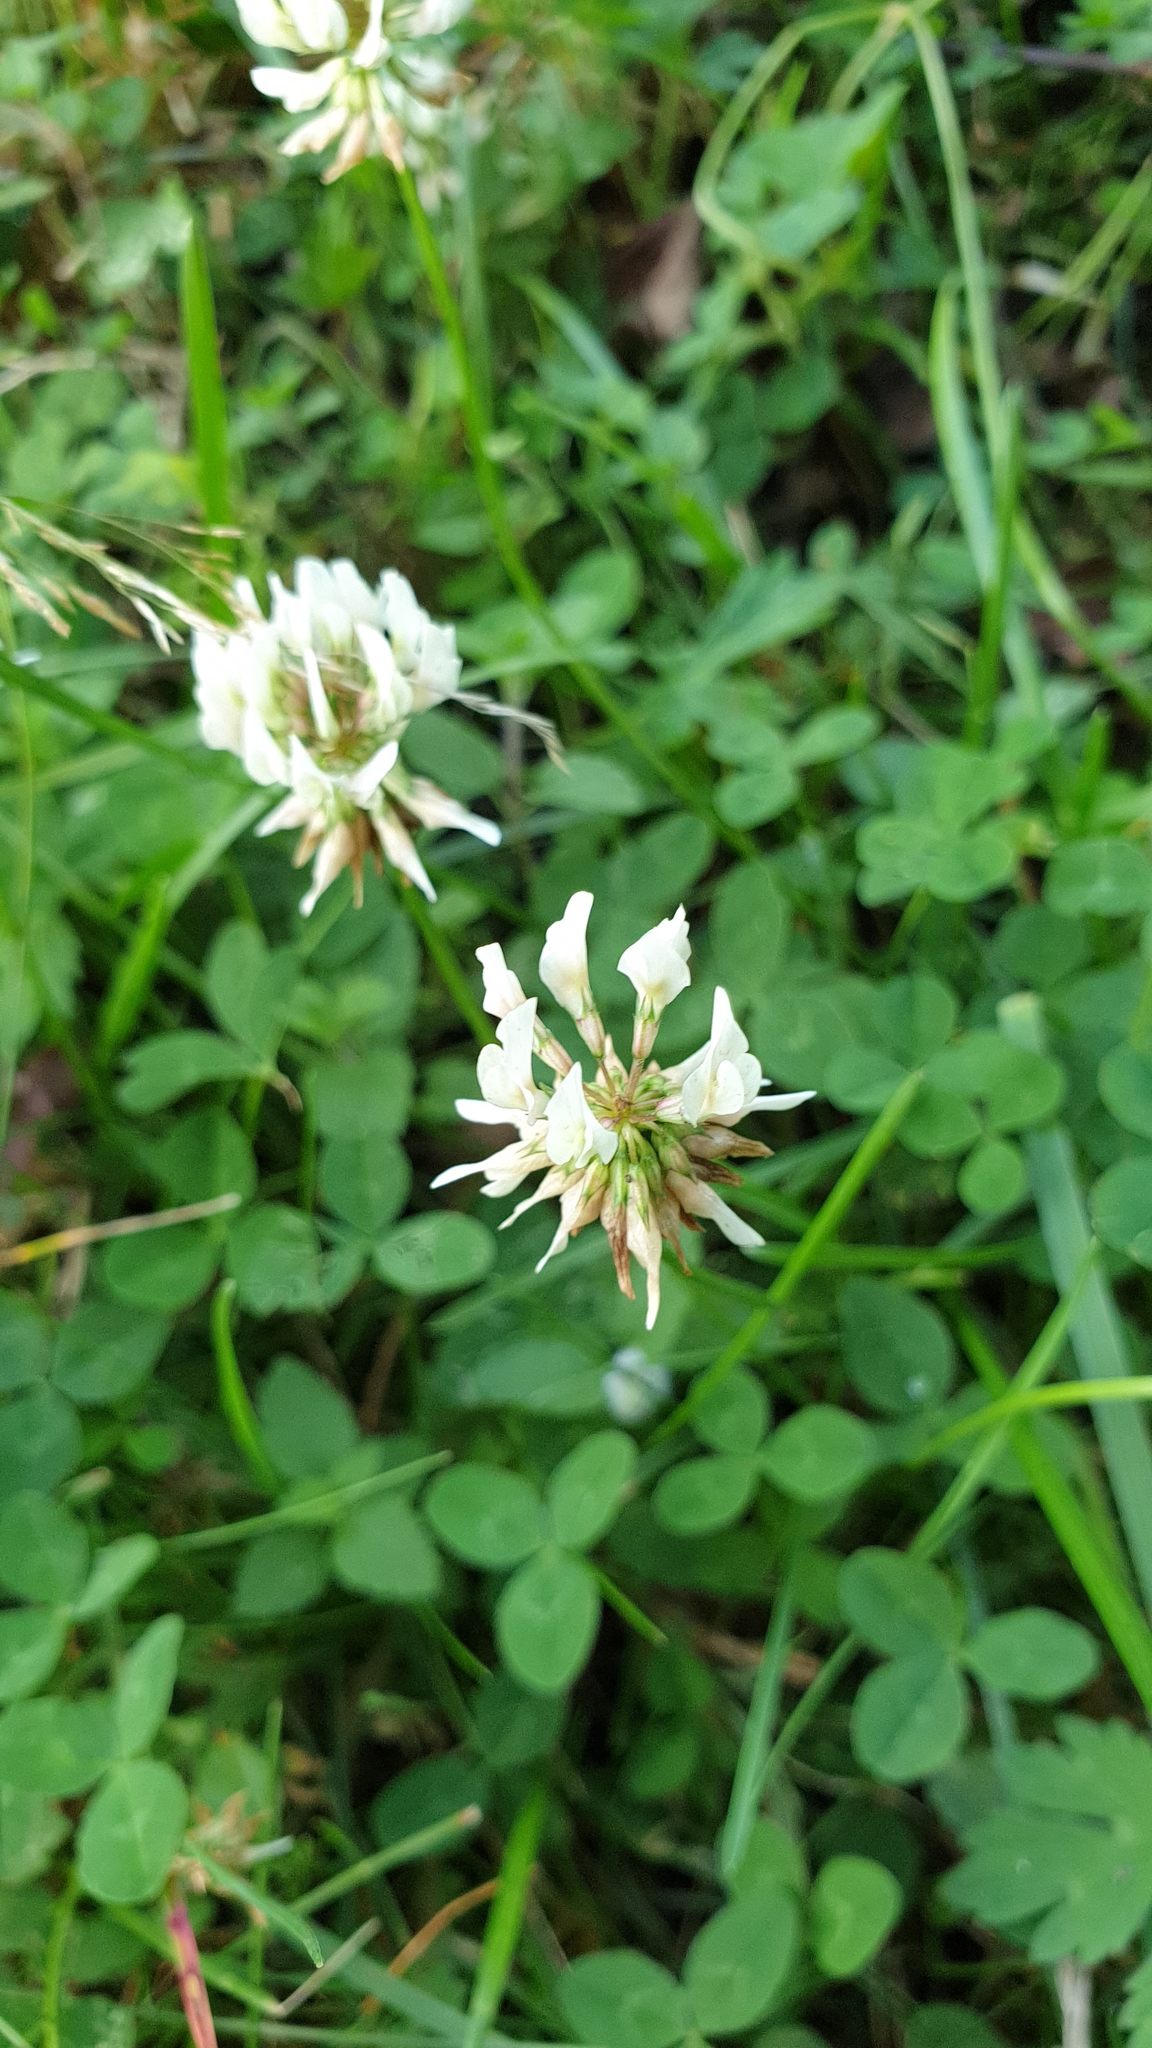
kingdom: Plantae
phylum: Tracheophyta
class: Magnoliopsida
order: Fabales
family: Fabaceae
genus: Trifolium
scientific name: Trifolium repens
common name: White clover
